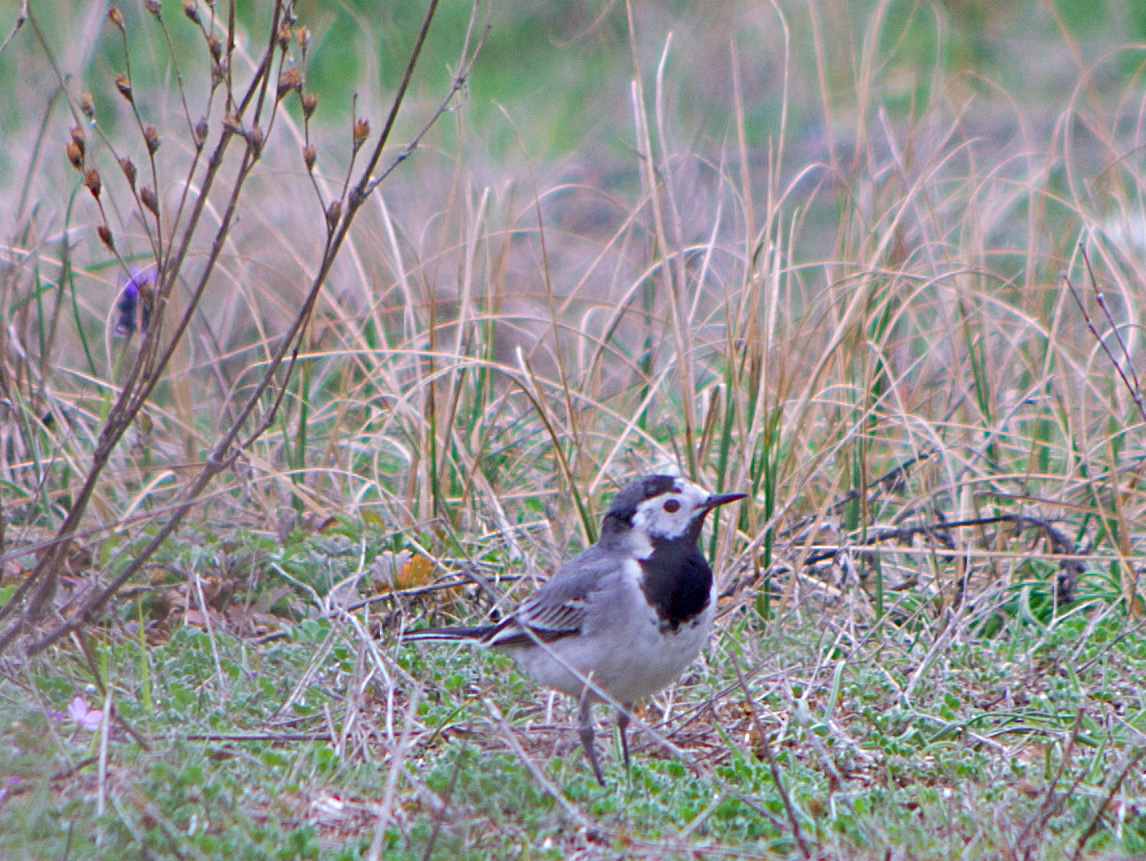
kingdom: Animalia
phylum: Chordata
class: Aves
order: Passeriformes
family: Motacillidae
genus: Motacilla
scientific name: Motacilla alba
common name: White wagtail
